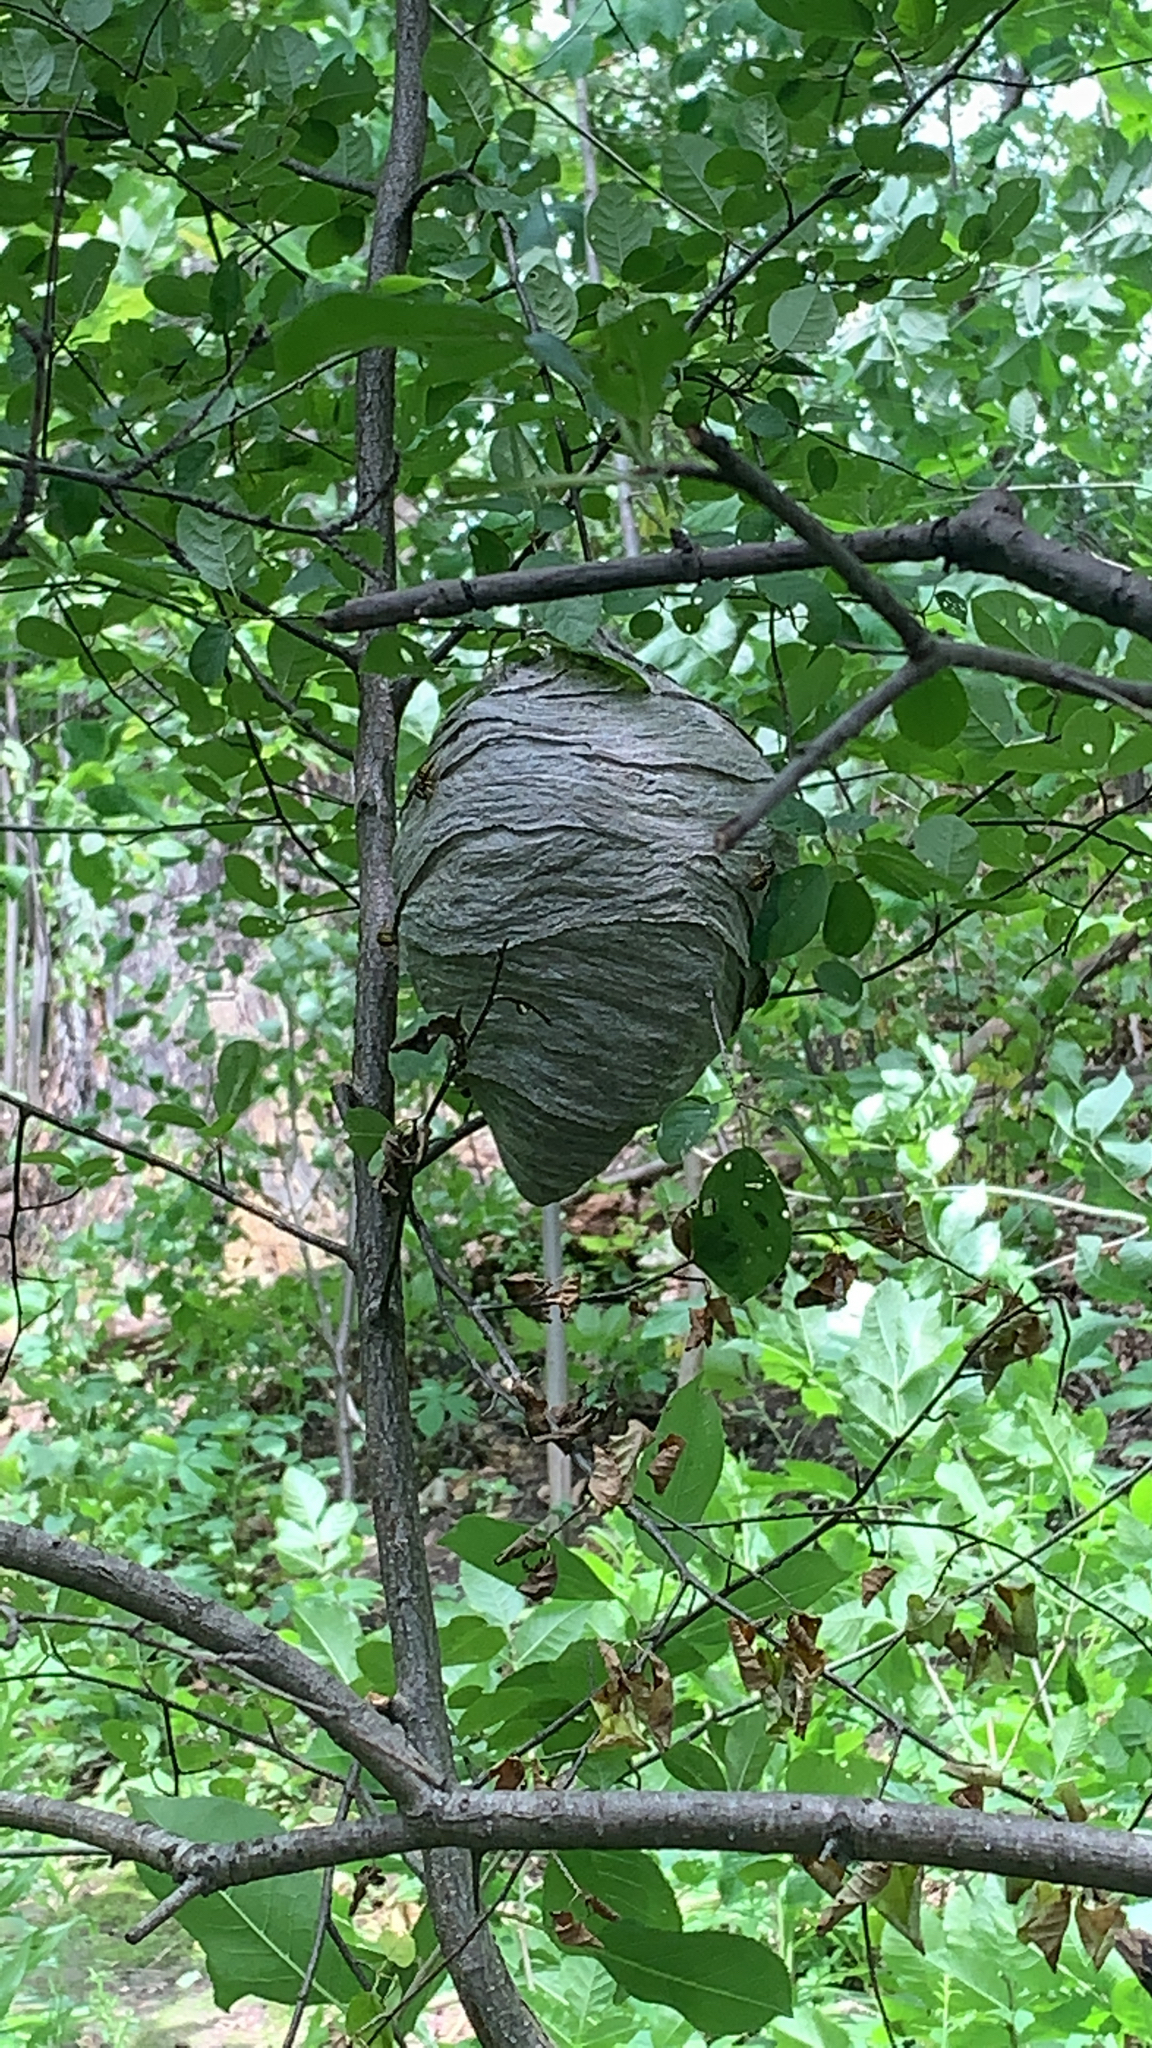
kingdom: Animalia
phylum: Arthropoda
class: Insecta
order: Hymenoptera
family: Vespidae
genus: Dolichovespula
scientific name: Dolichovespula arenaria
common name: Aerial yellowjacket
